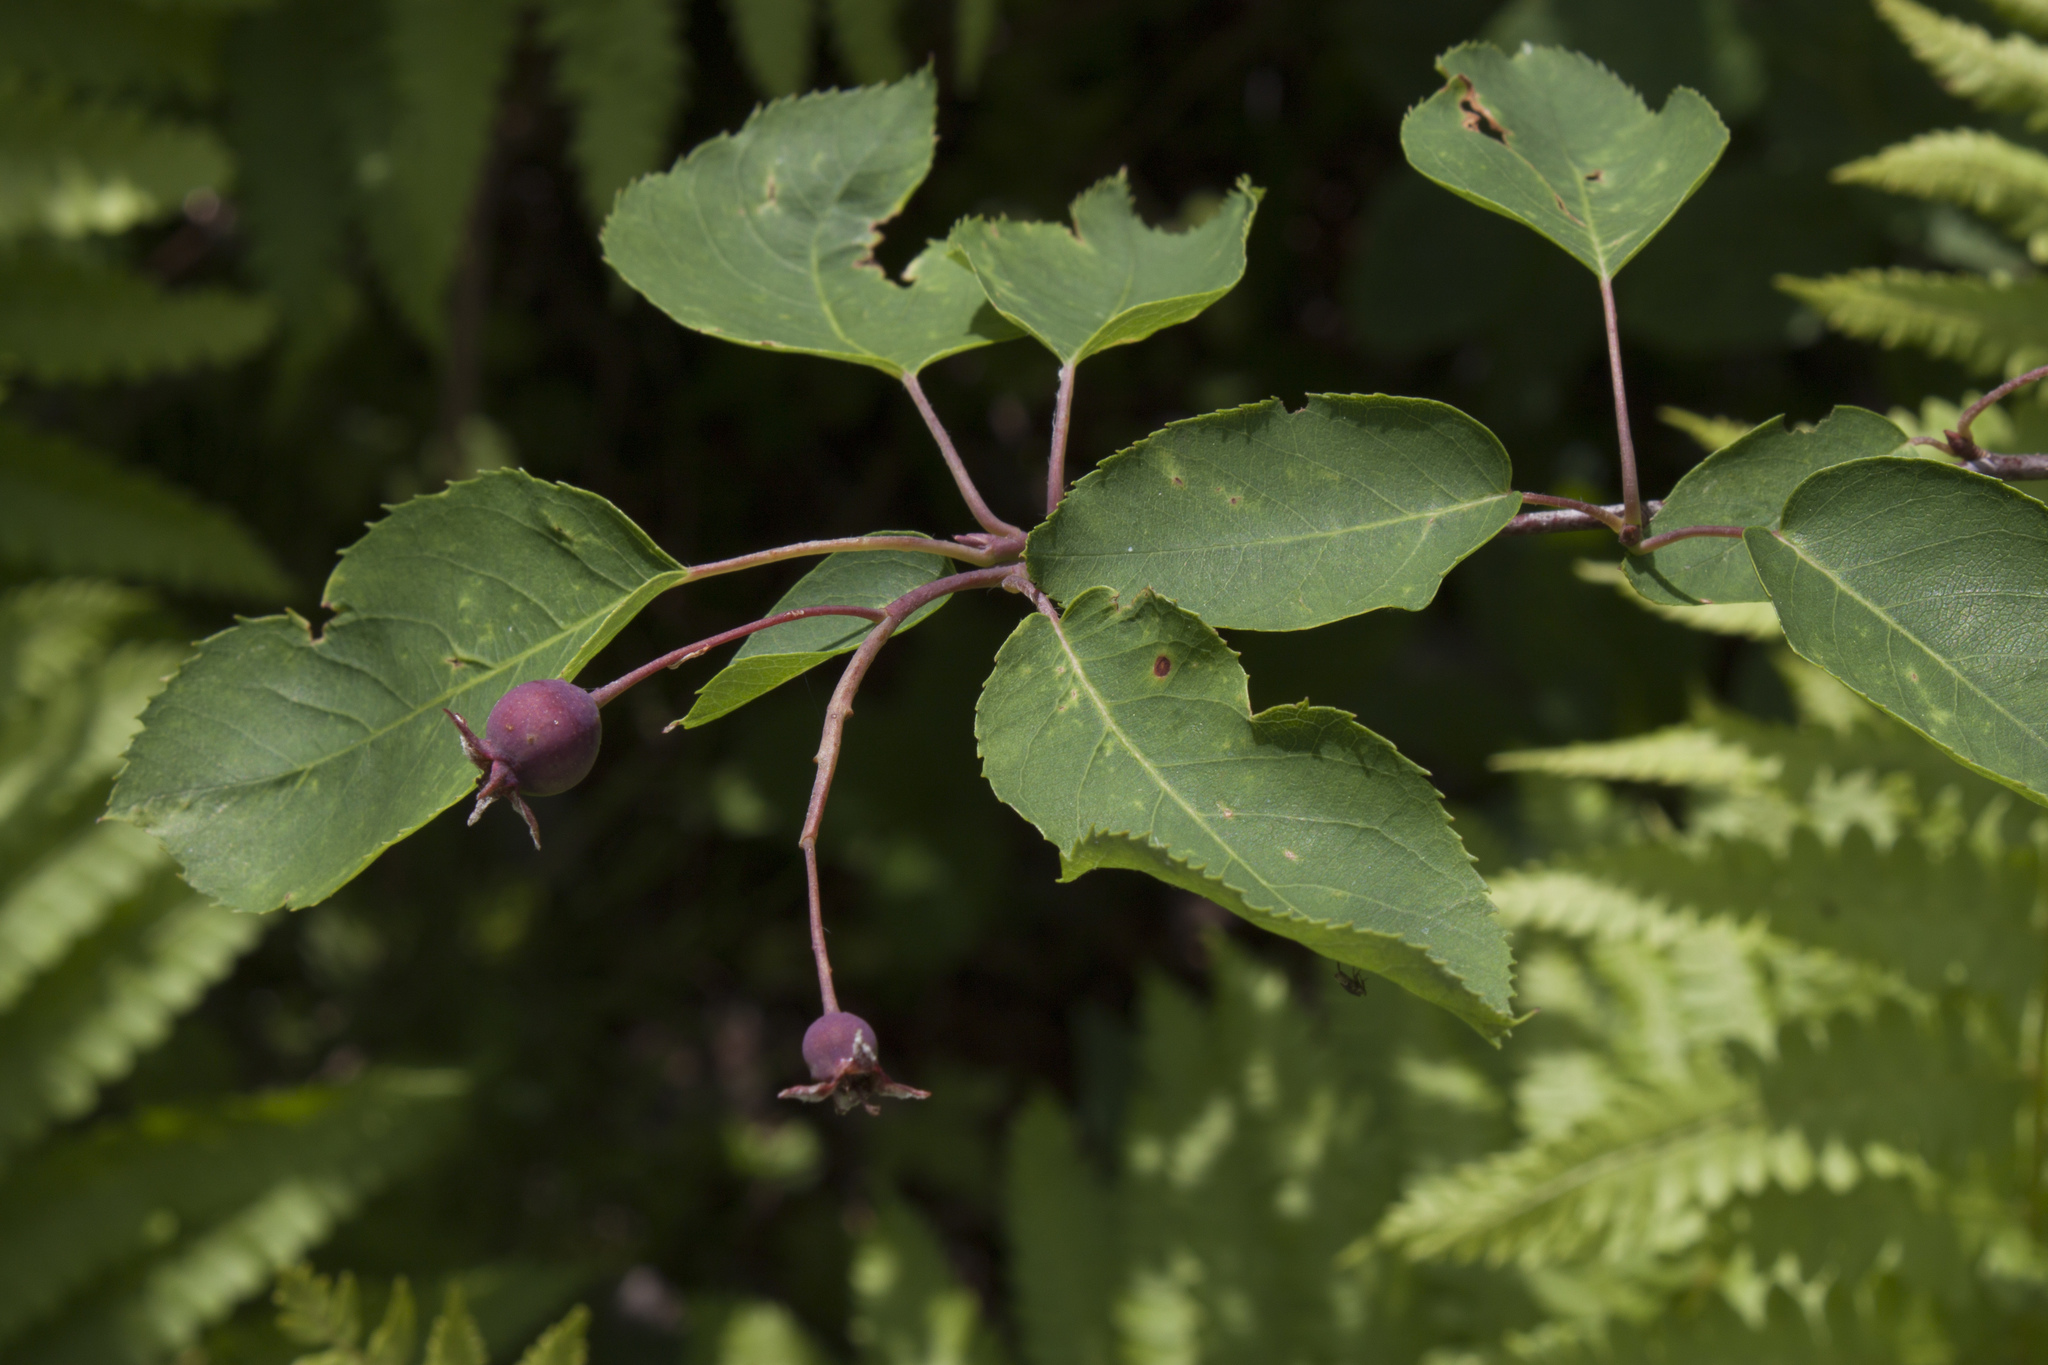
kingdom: Plantae
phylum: Tracheophyta
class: Magnoliopsida
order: Rosales
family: Rosaceae
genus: Amelanchier
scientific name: Amelanchier arborea
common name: Downy serviceberry
